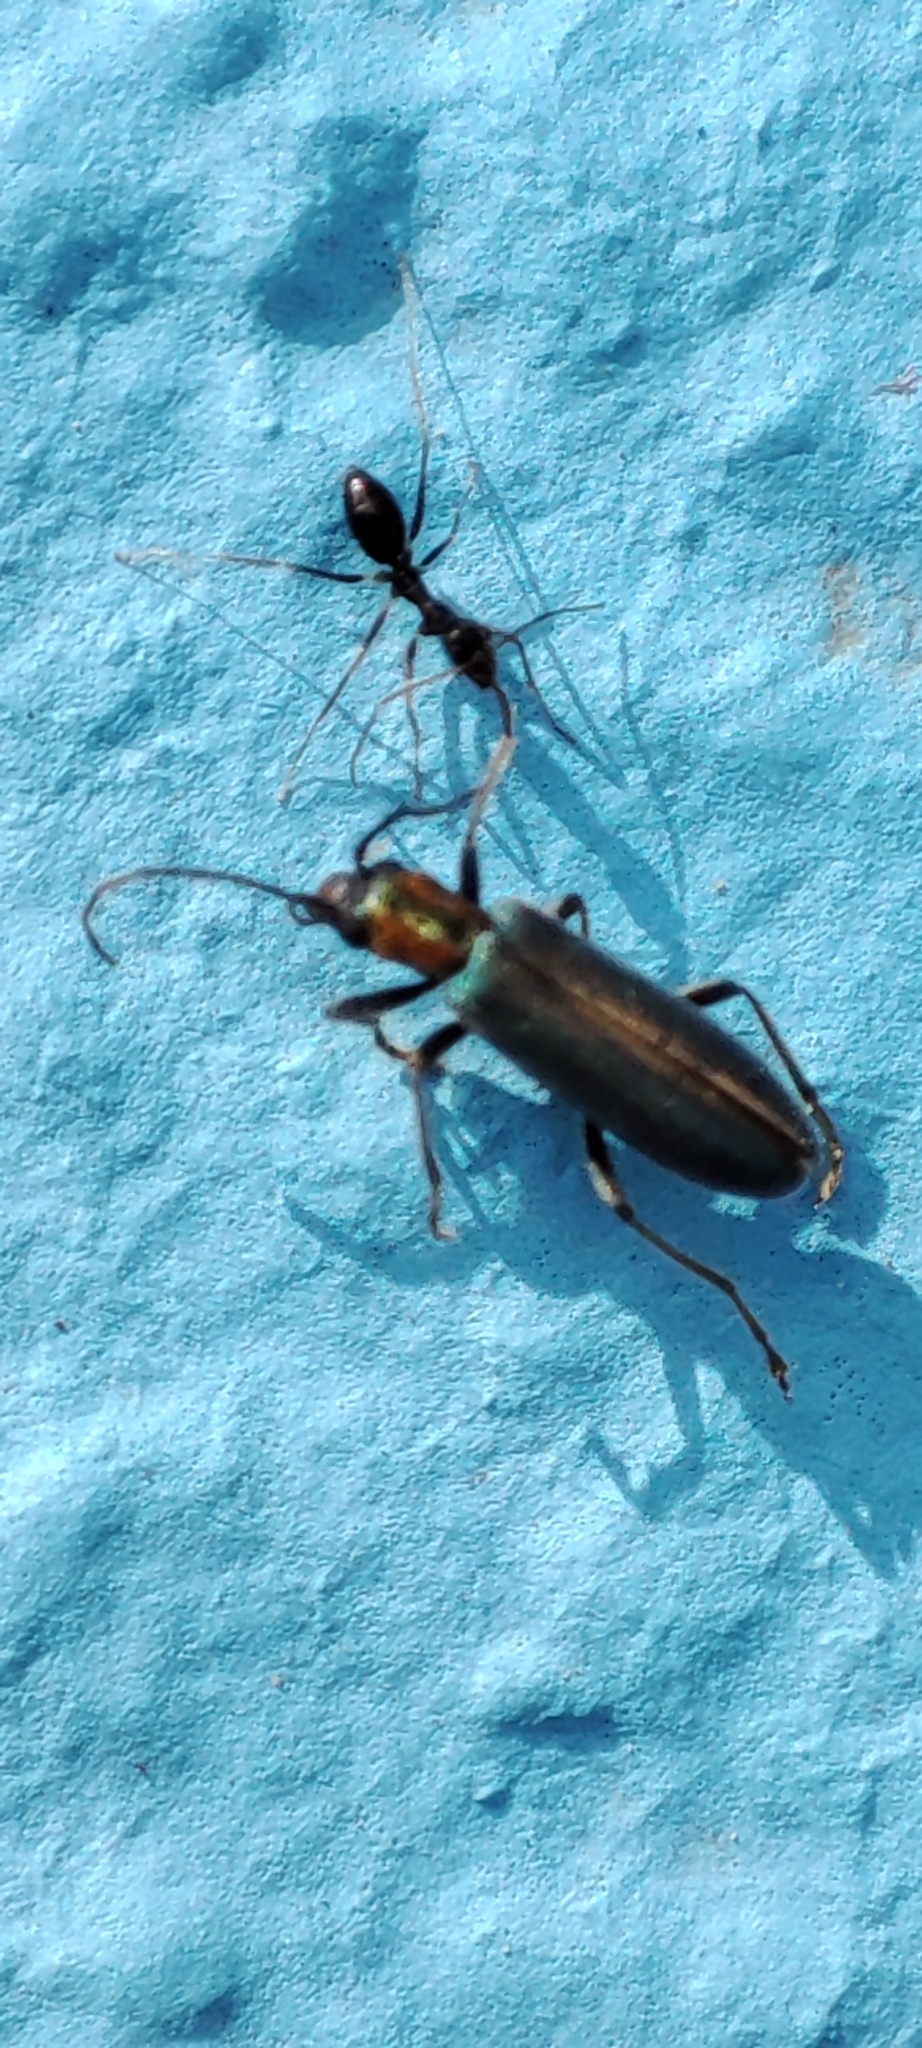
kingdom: Animalia
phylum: Arthropoda
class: Insecta
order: Hymenoptera
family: Formicidae
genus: Paratrechina
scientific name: Paratrechina longicornis
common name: Longhorned crazy ant
